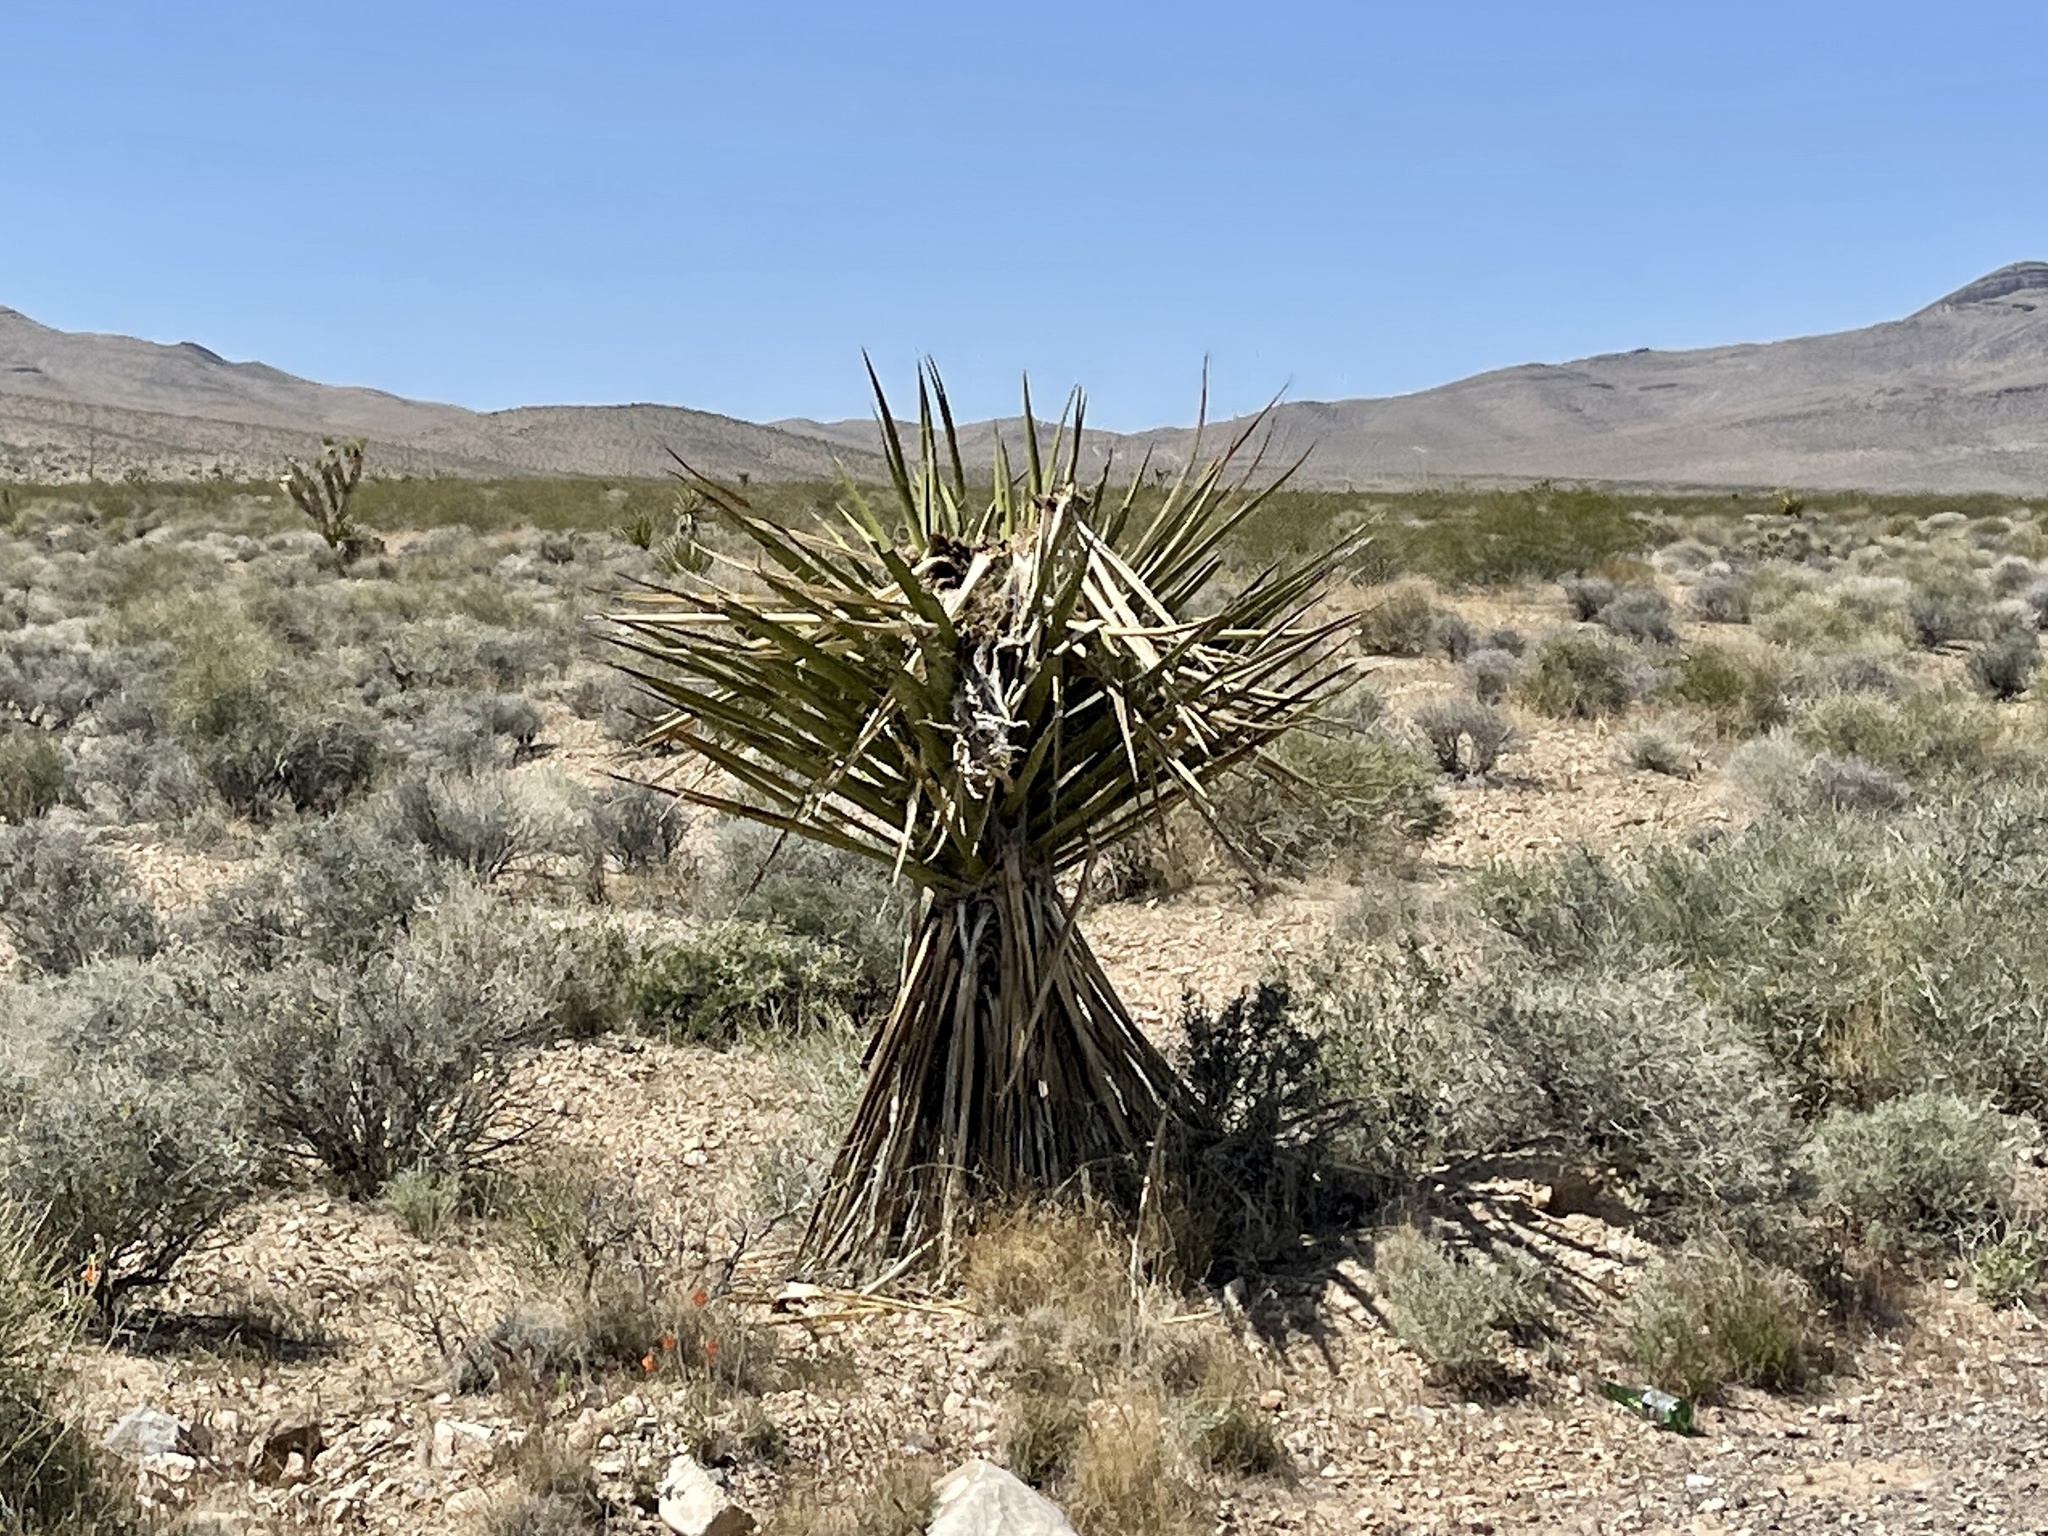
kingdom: Plantae
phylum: Tracheophyta
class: Liliopsida
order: Asparagales
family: Asparagaceae
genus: Yucca
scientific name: Yucca schidigera
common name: Mojave yucca
